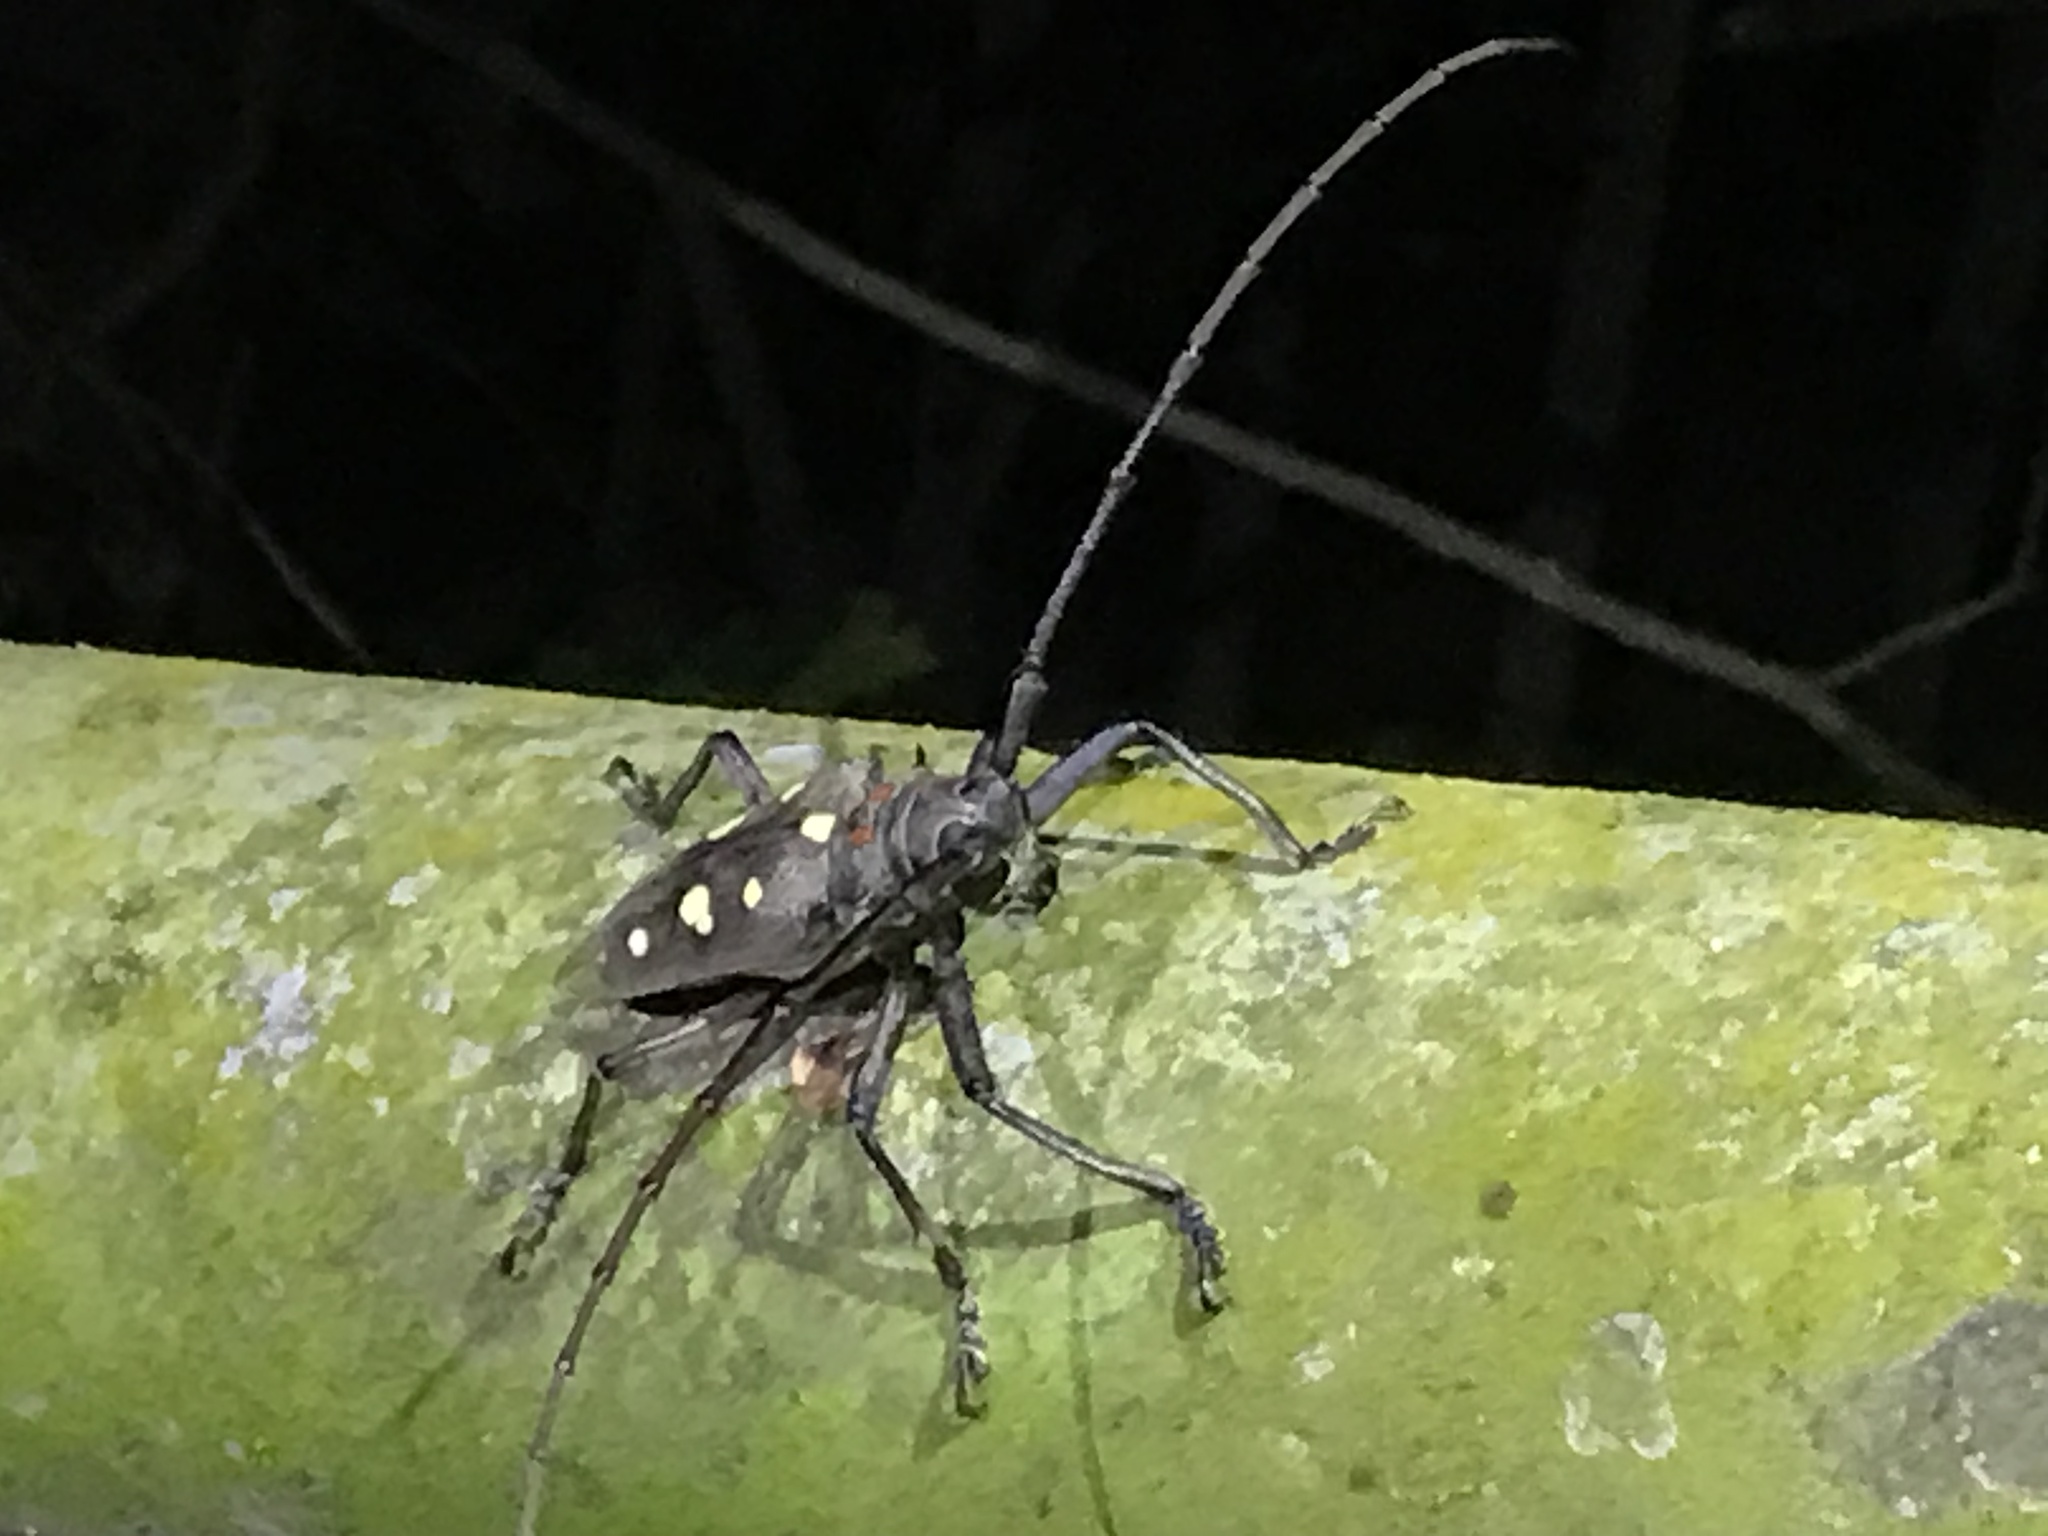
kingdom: Animalia
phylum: Arthropoda
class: Insecta
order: Coleoptera
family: Cerambycidae
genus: Batocera
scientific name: Batocera rubus
